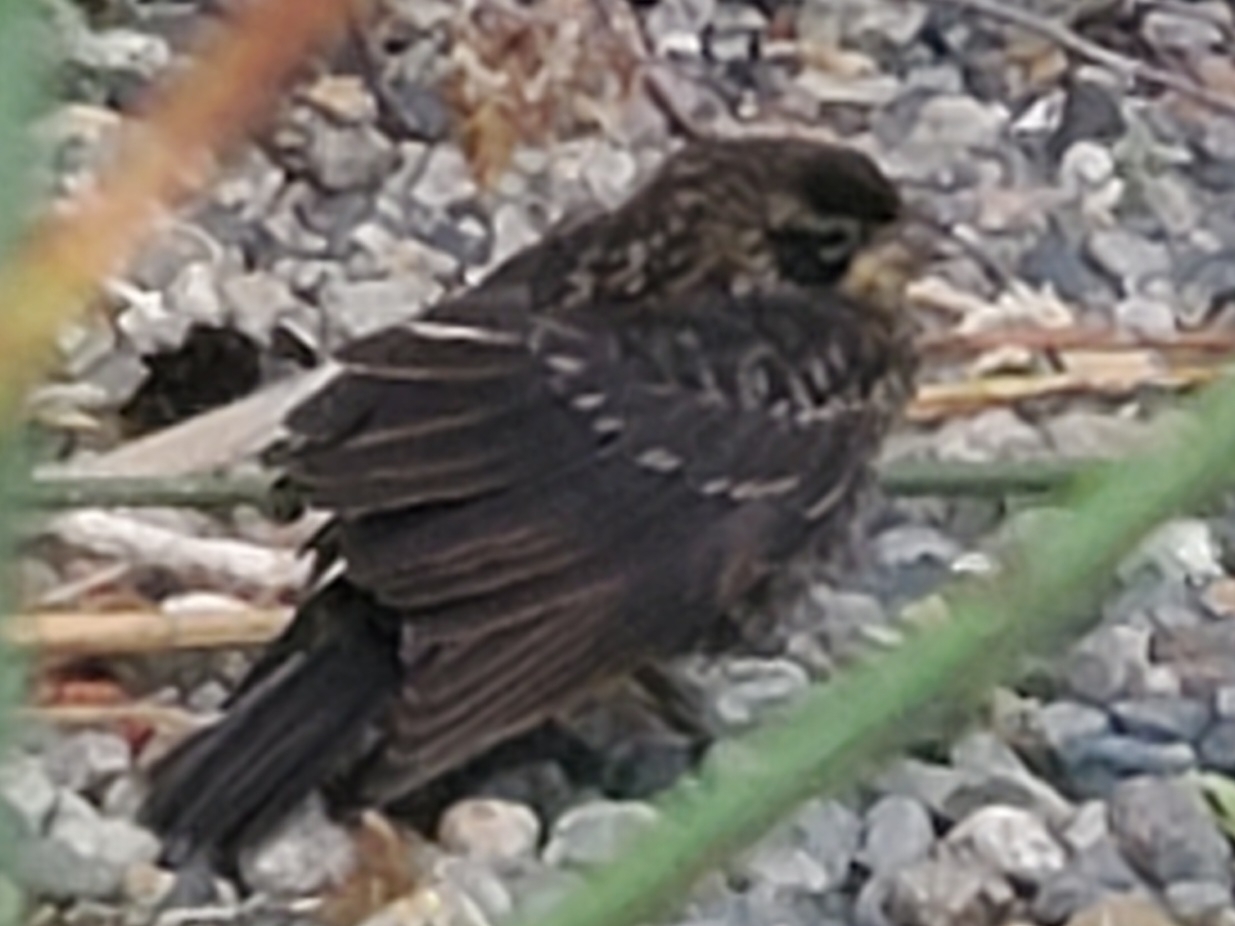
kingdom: Animalia
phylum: Chordata
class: Aves
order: Passeriformes
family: Icteridae
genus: Agelaius
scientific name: Agelaius phoeniceus
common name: Red-winged blackbird
